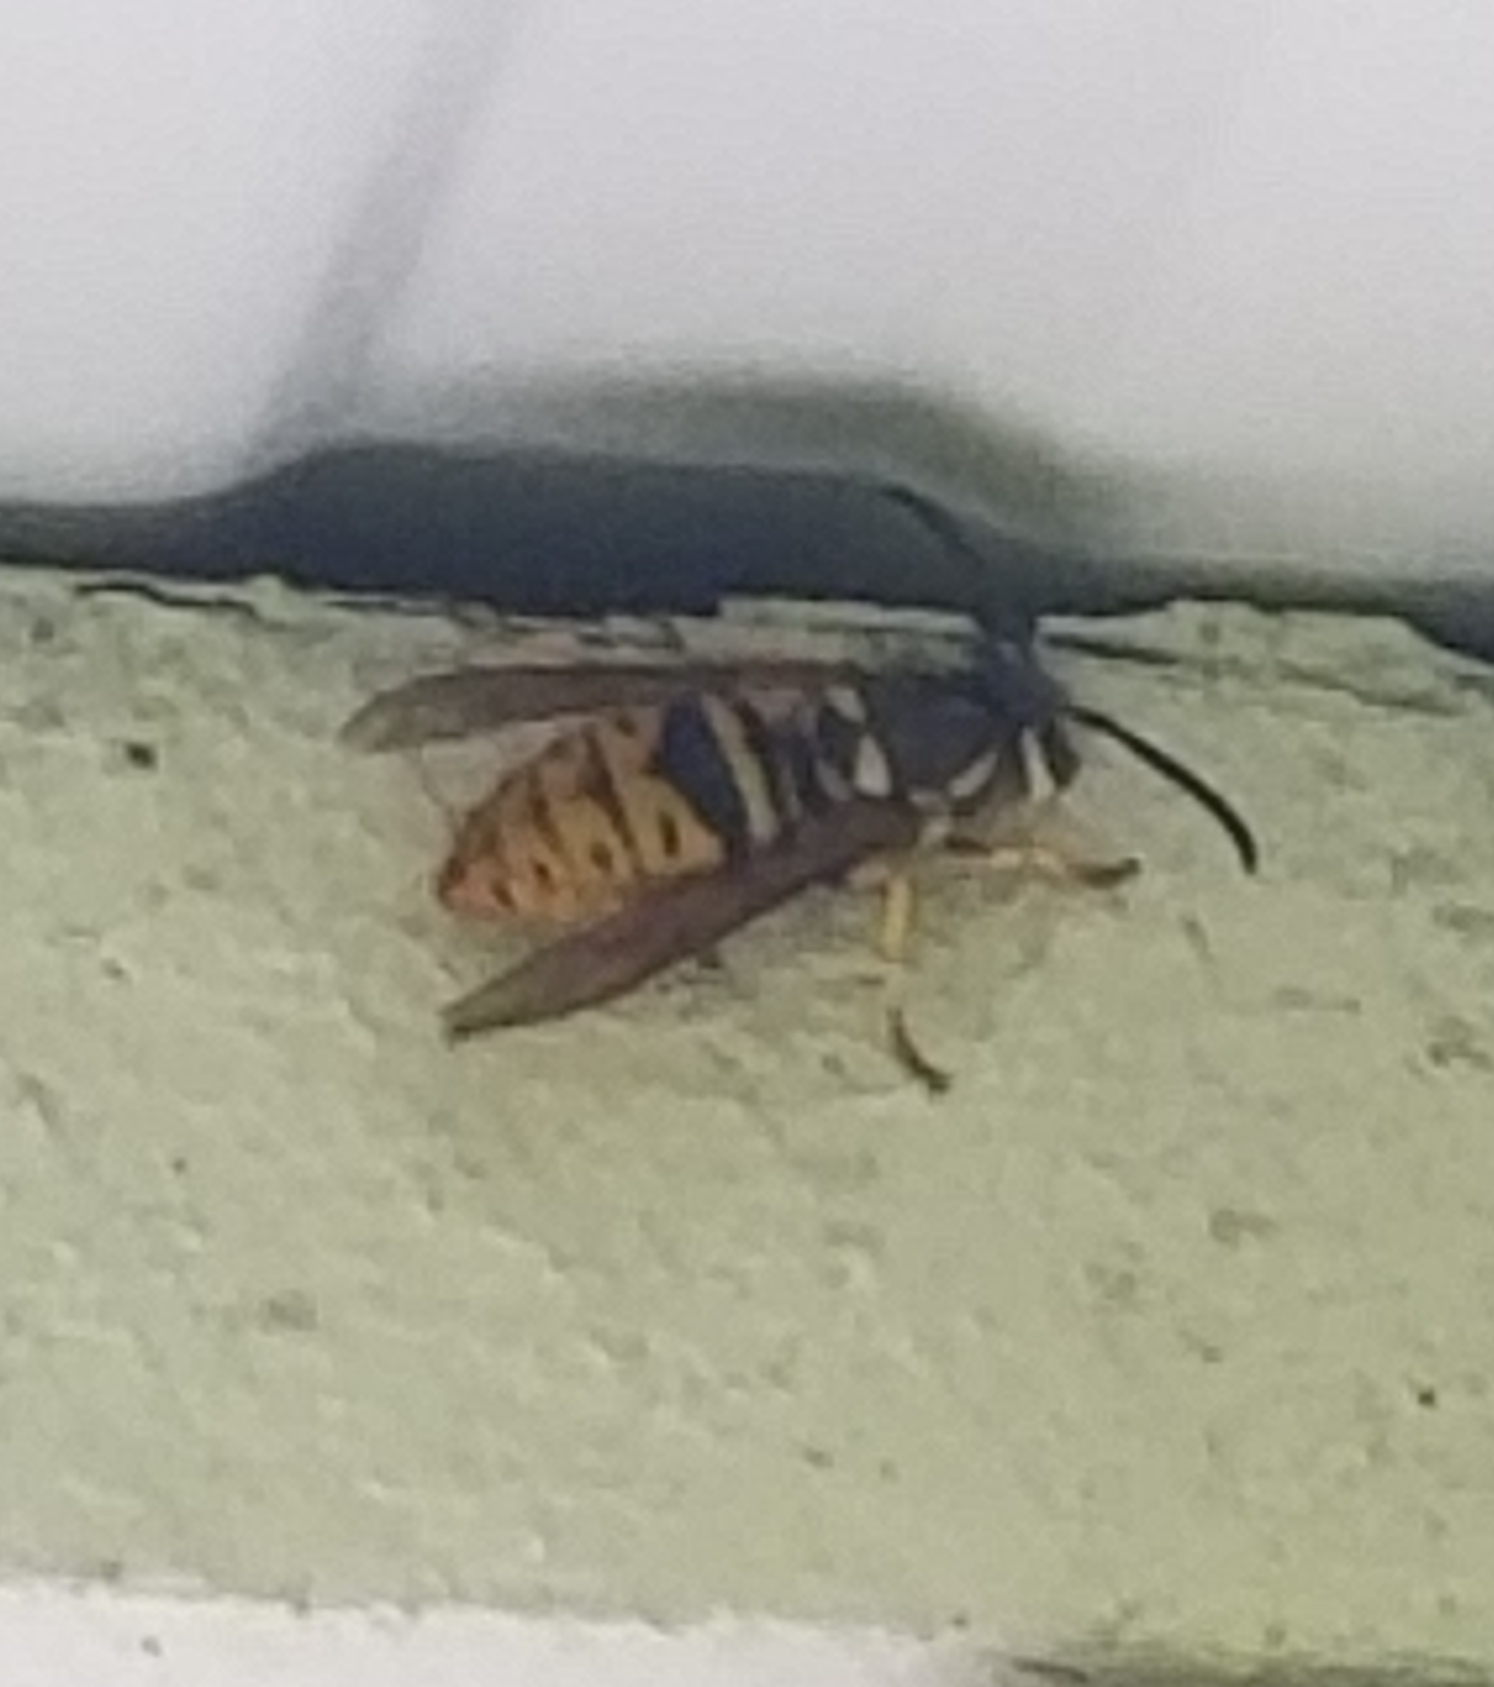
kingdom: Animalia
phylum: Arthropoda
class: Insecta
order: Hymenoptera
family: Vespidae
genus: Vespula
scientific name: Vespula maculifrons
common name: Eastern yellowjacket
